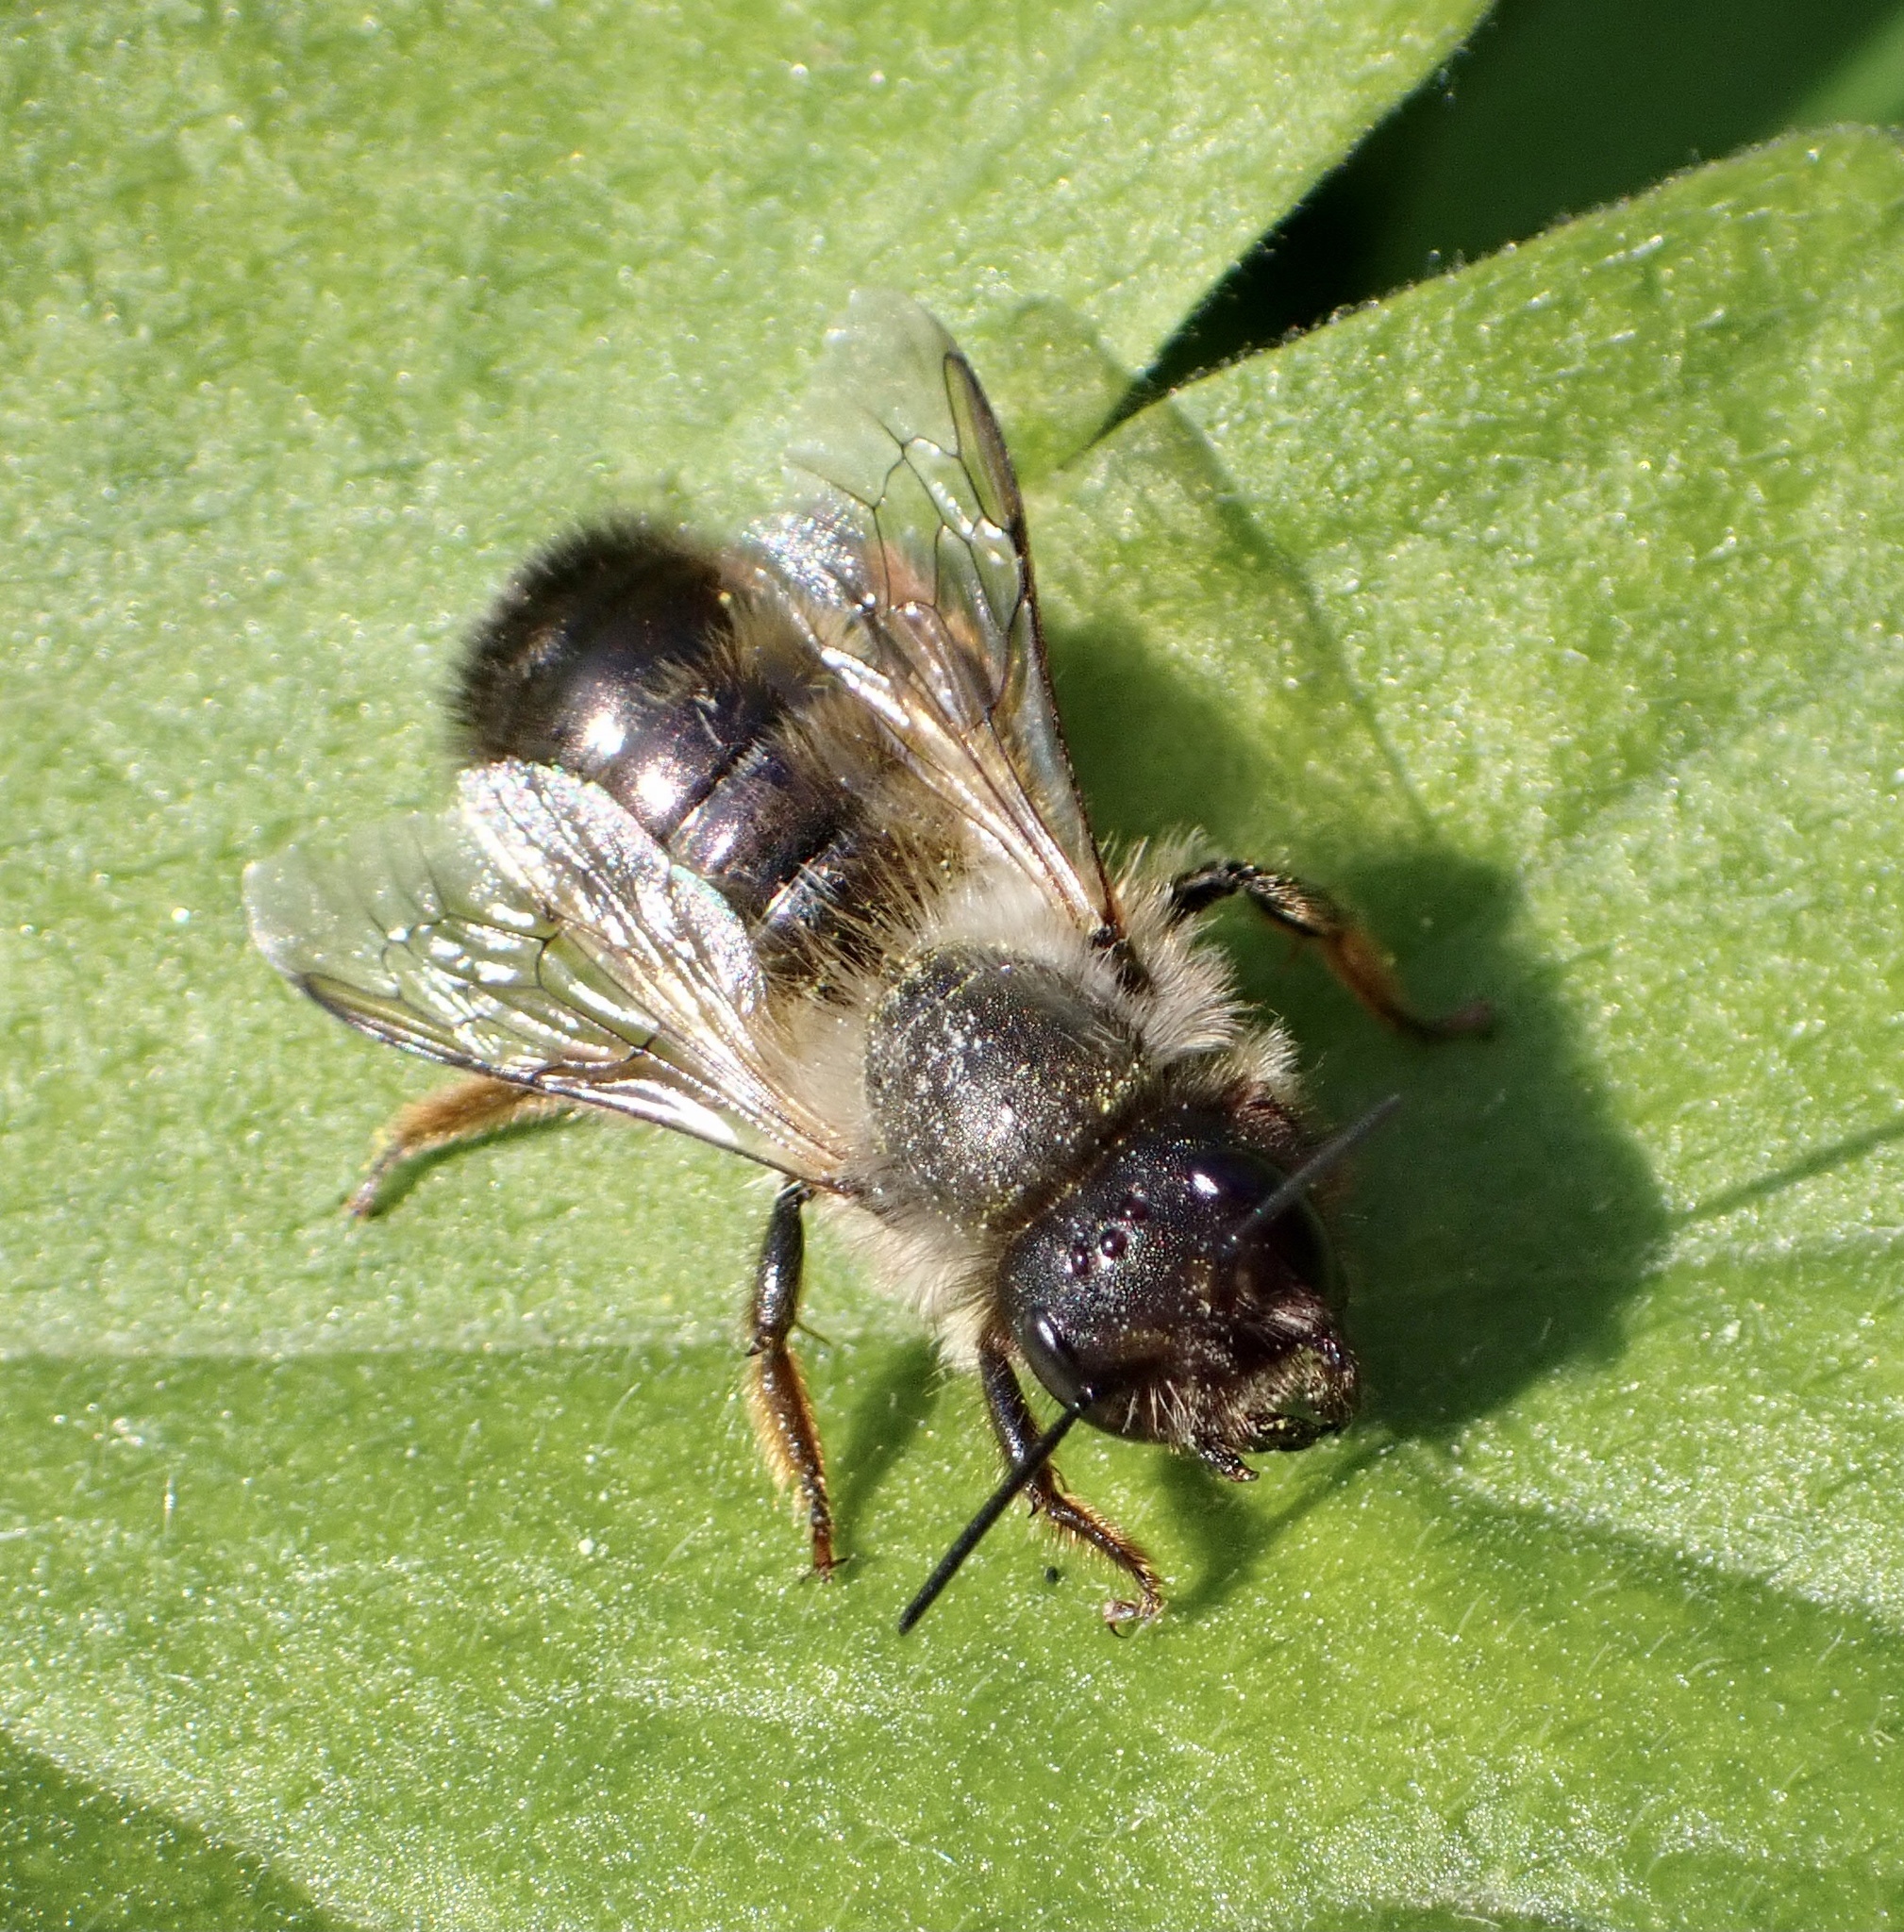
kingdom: Animalia
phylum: Arthropoda
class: Insecta
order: Hymenoptera
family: Megachilidae
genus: Osmia
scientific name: Osmia bicornis
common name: Red mason bee
